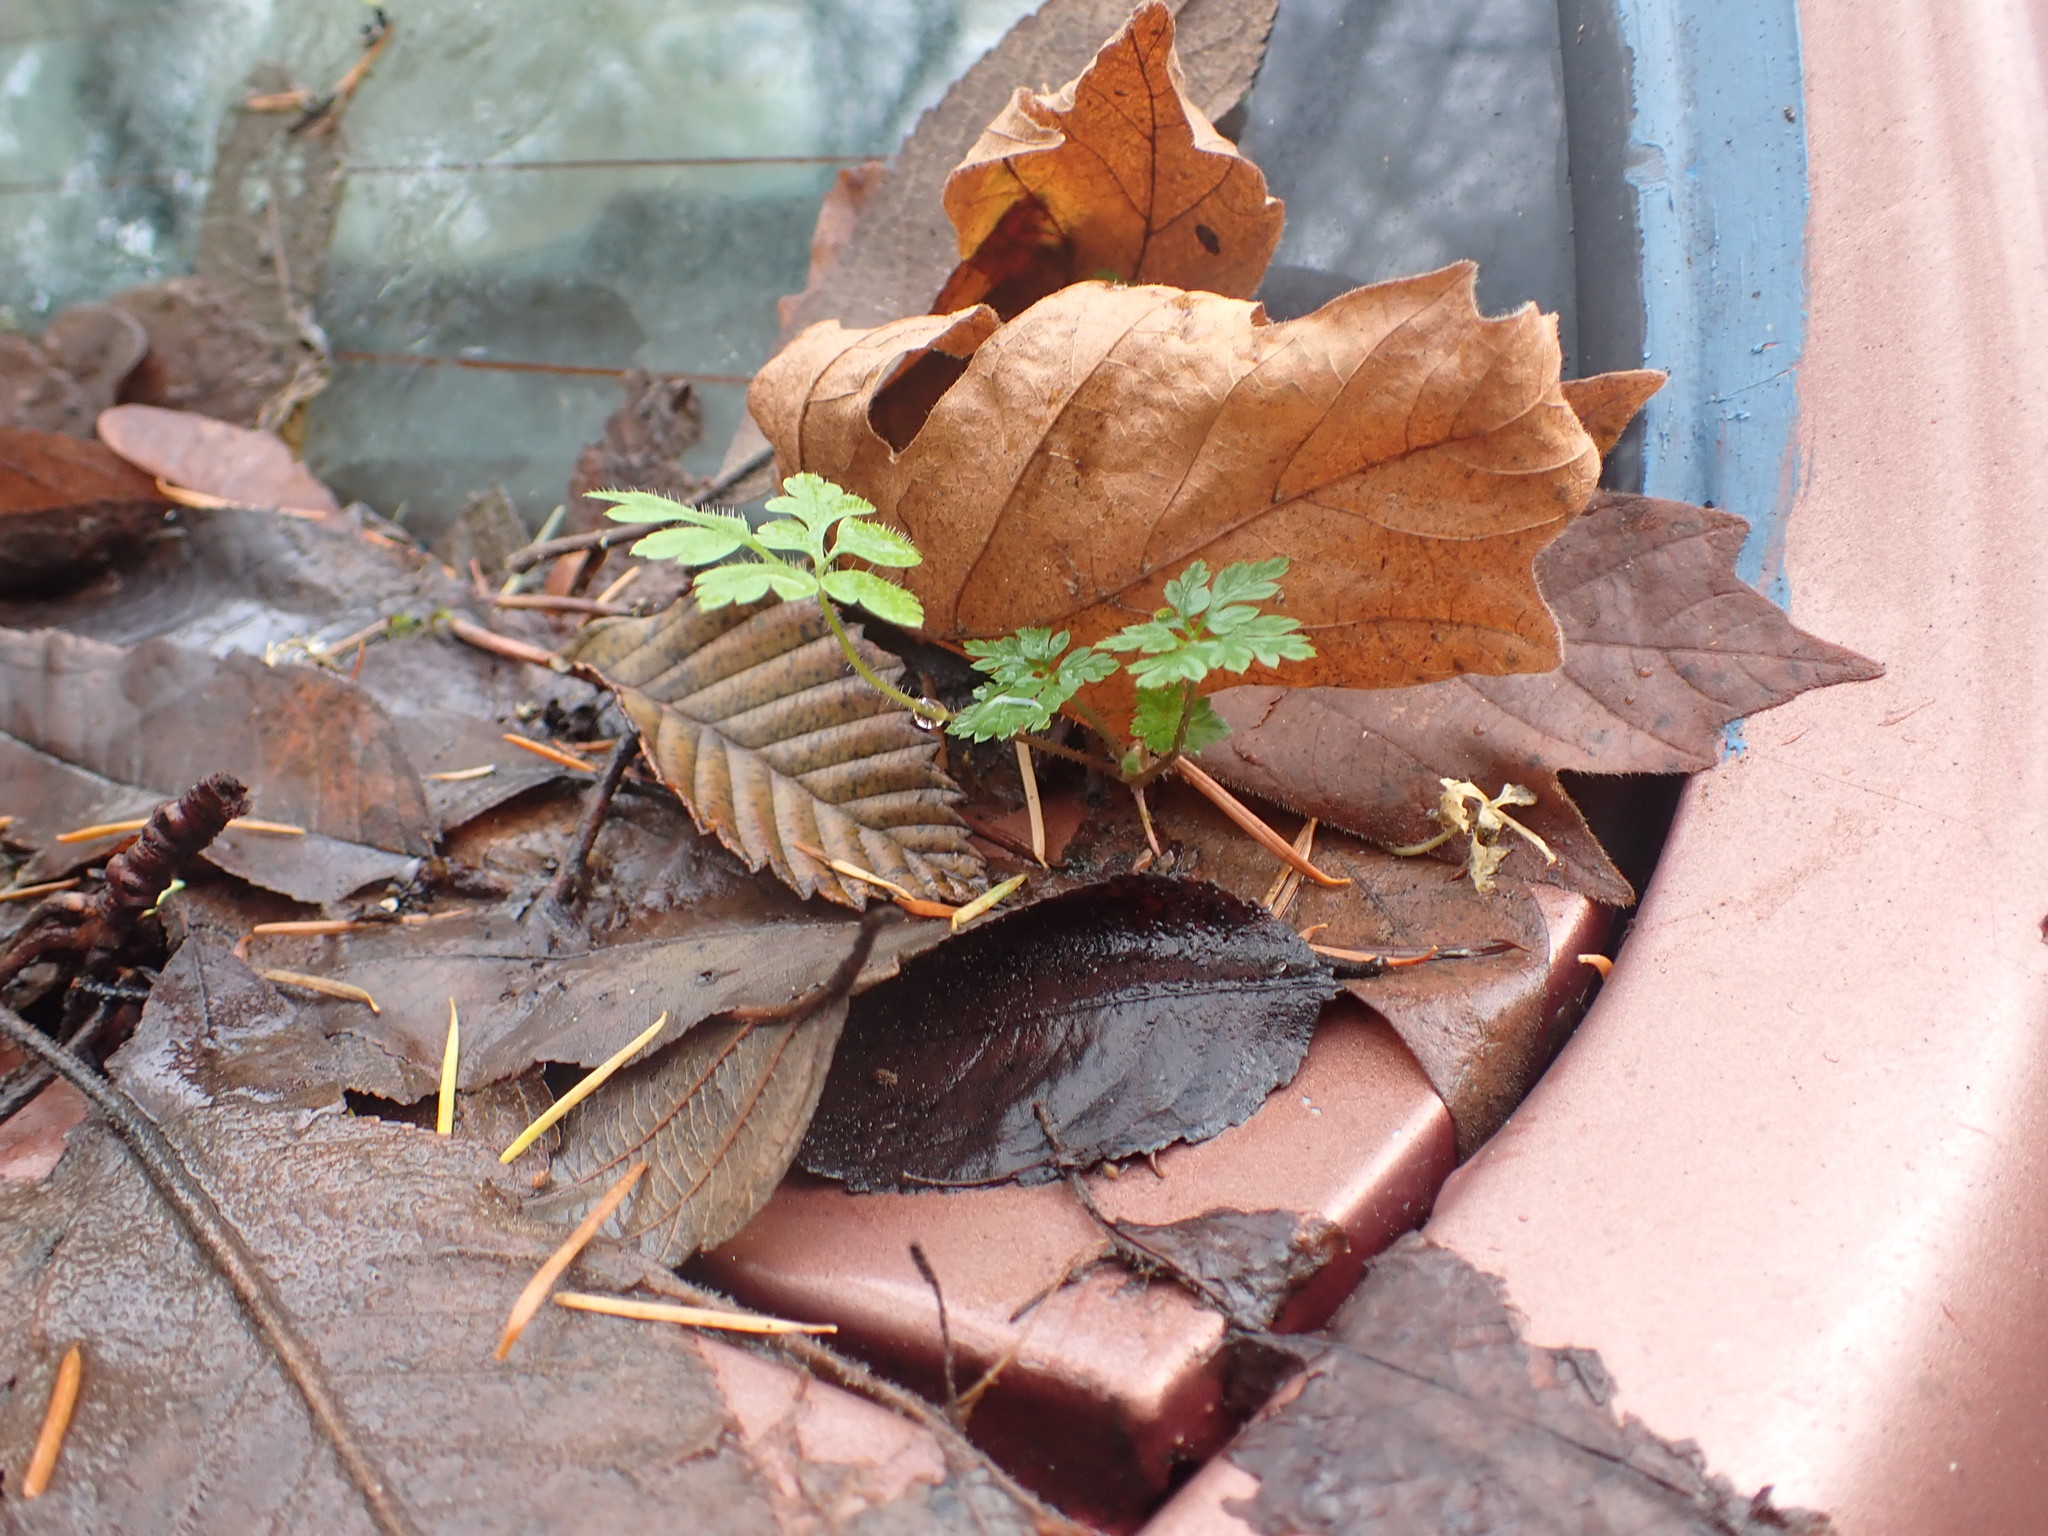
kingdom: Plantae
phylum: Tracheophyta
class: Magnoliopsida
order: Geraniales
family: Geraniaceae
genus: Geranium
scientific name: Geranium robertianum
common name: Herb-robert
